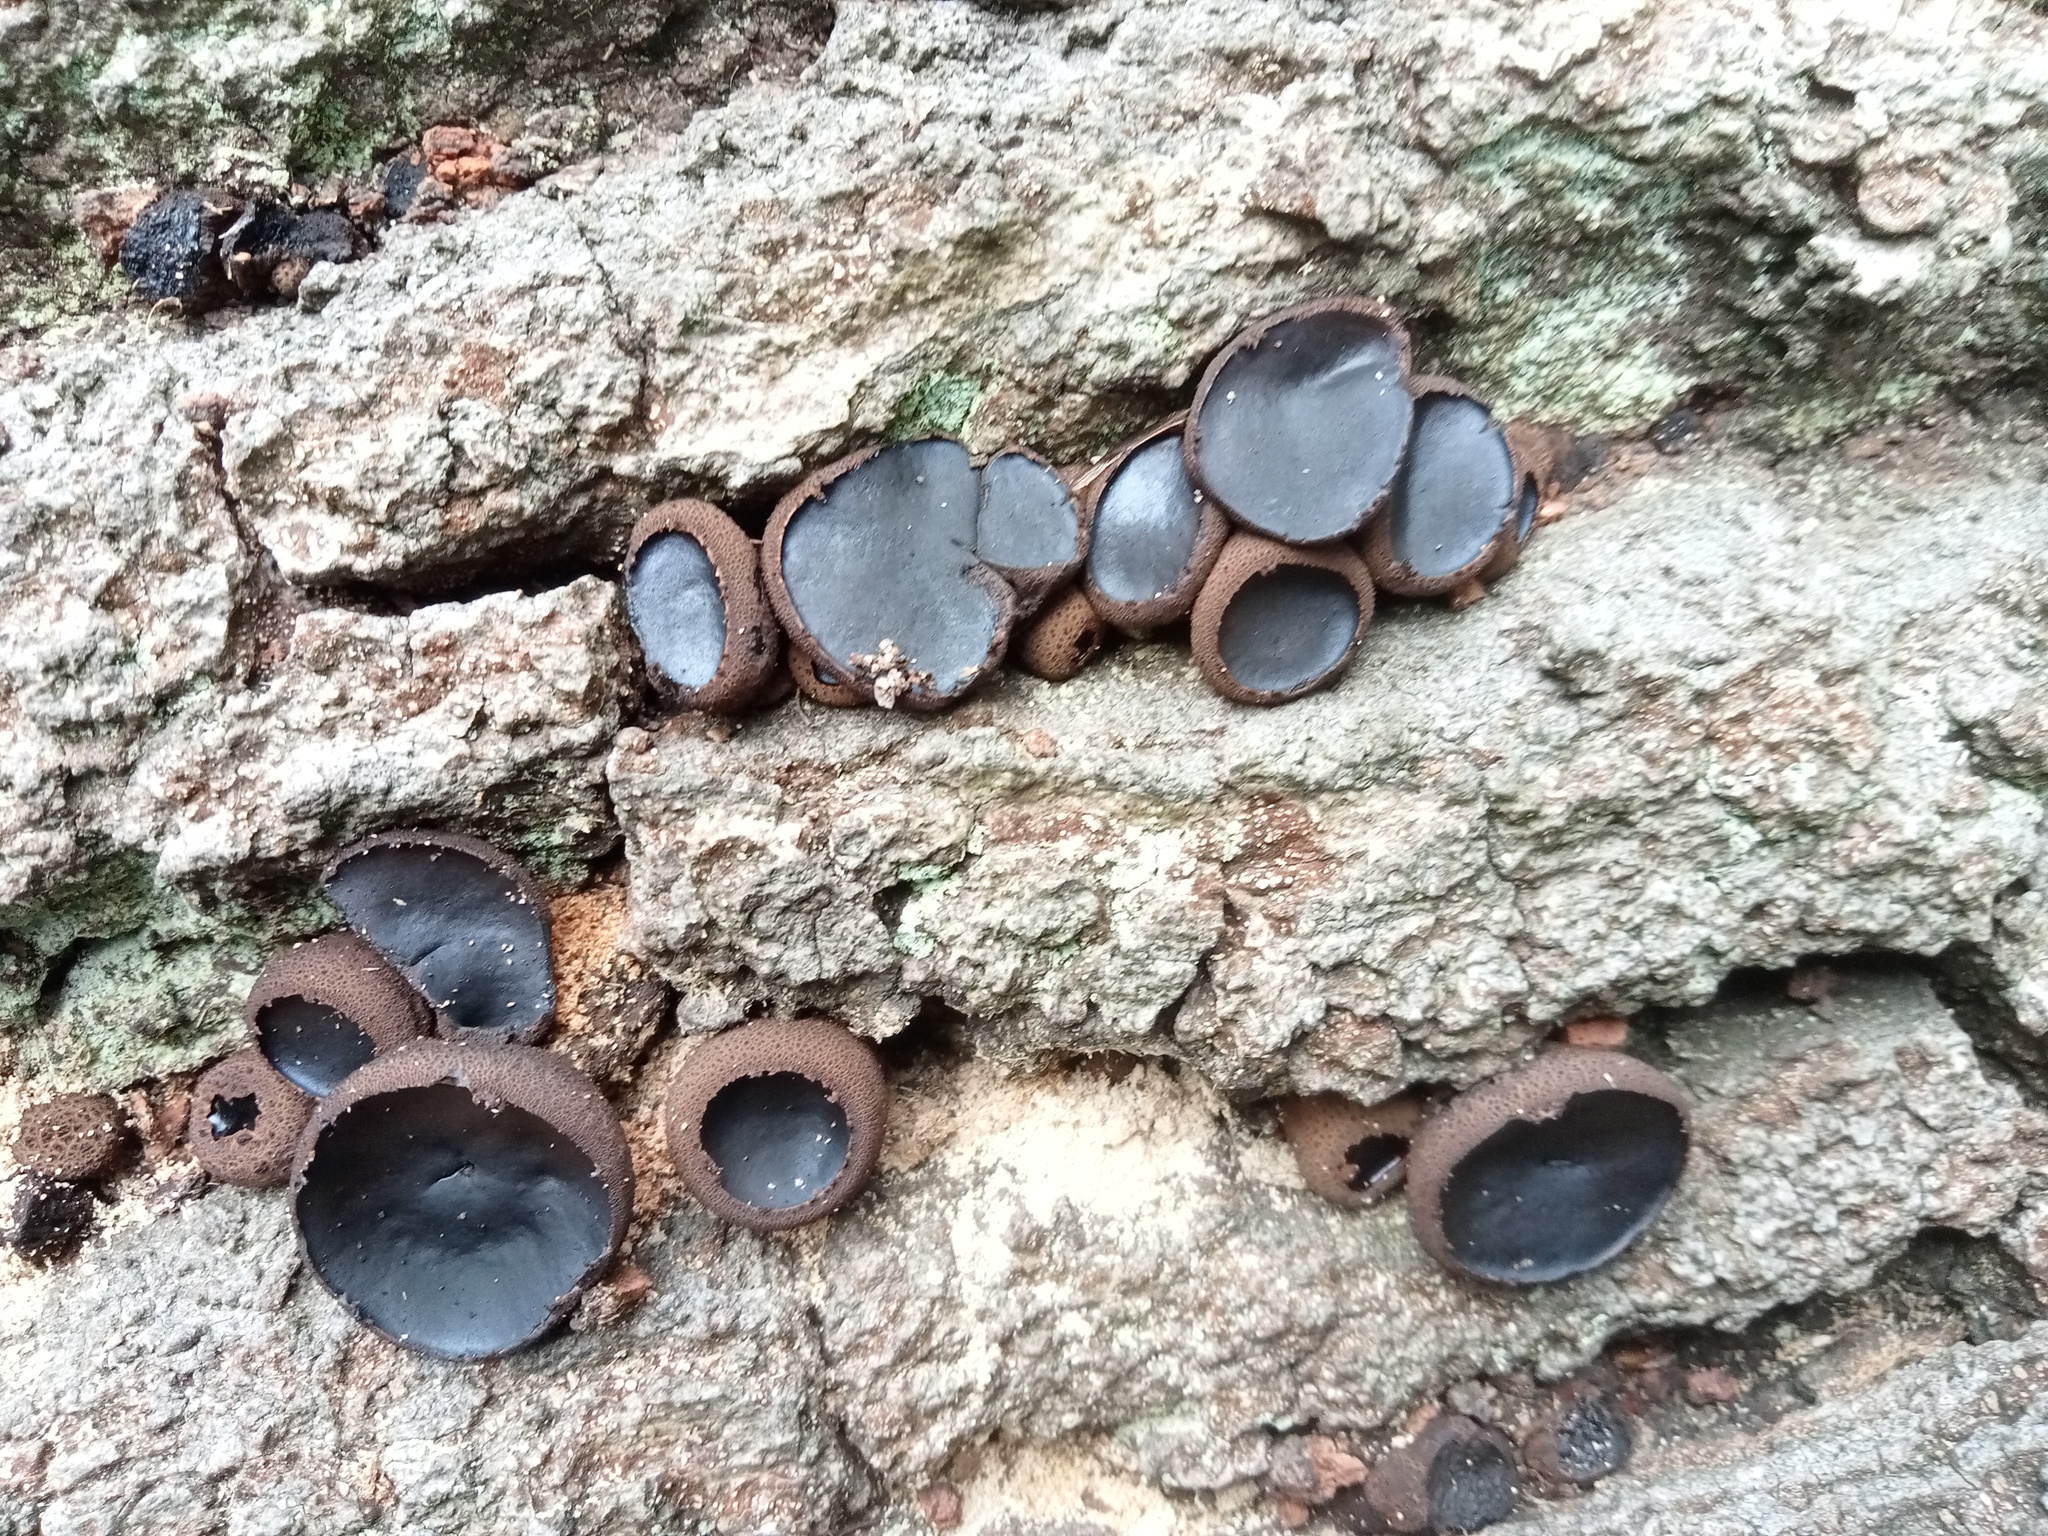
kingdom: Fungi
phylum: Ascomycota
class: Leotiomycetes
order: Phacidiales
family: Phacidiaceae
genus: Bulgaria
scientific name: Bulgaria inquinans
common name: Black bulgar
